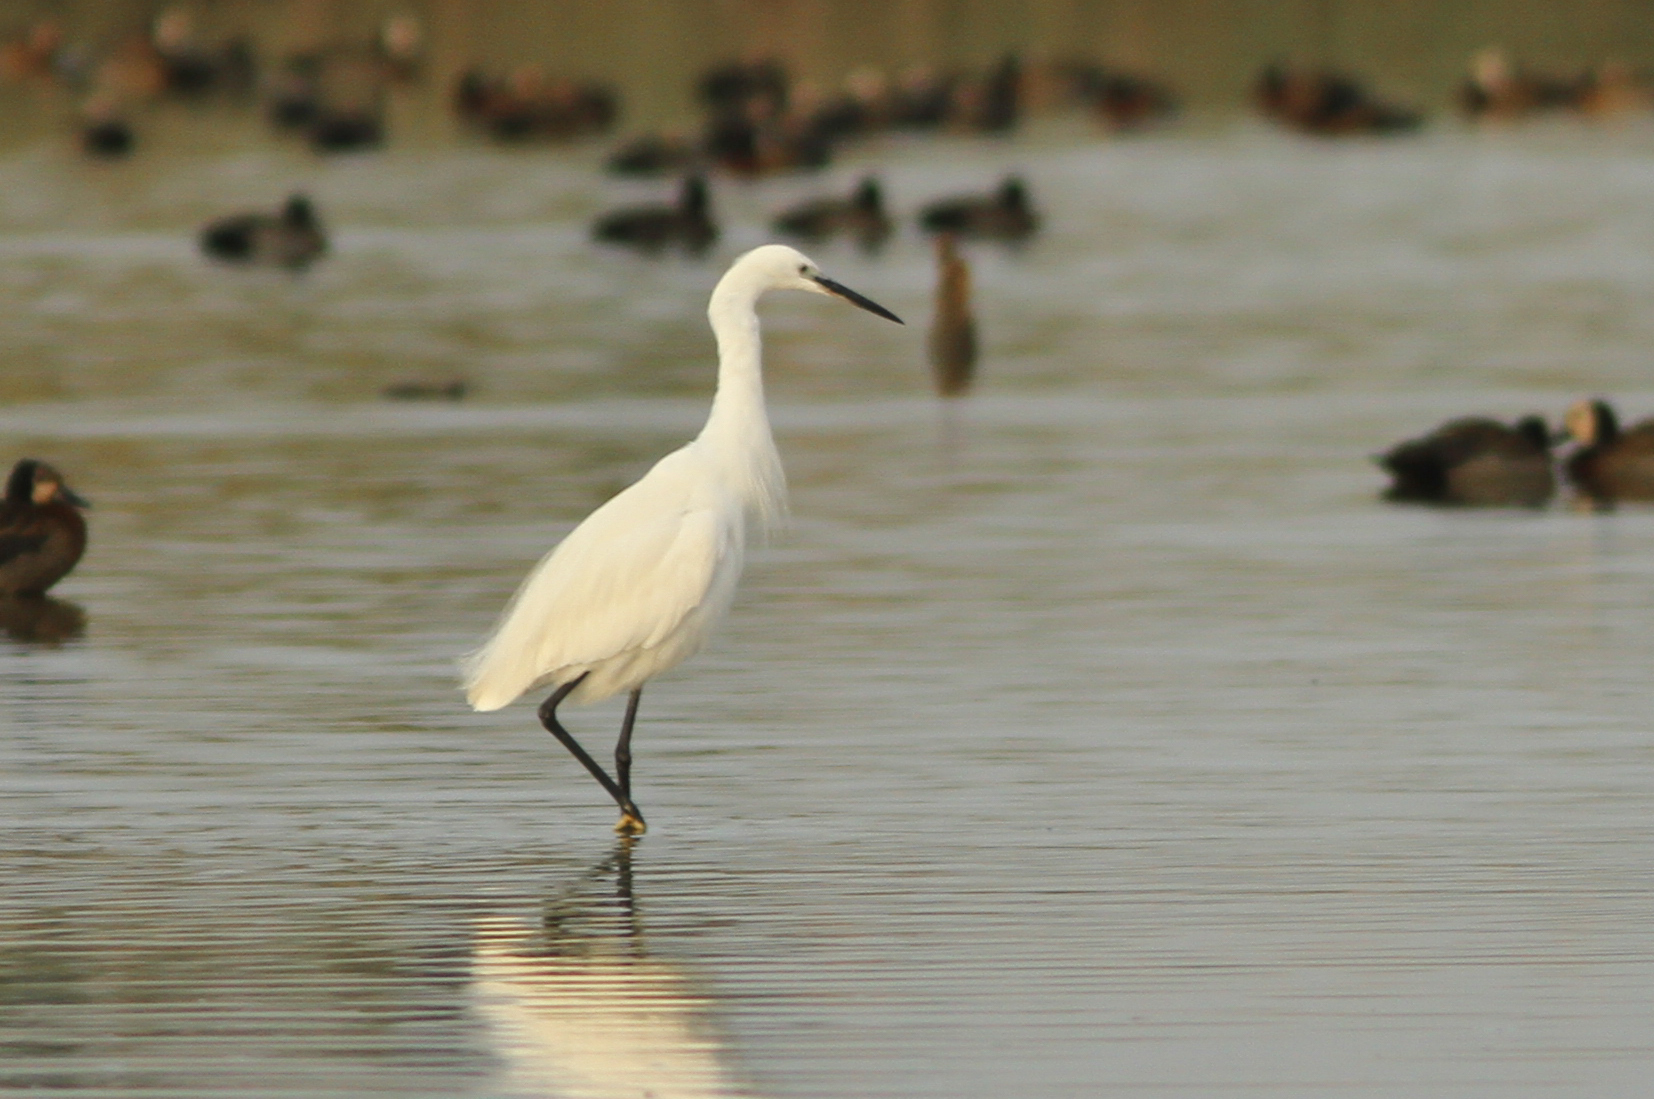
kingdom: Animalia
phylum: Chordata
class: Aves
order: Pelecaniformes
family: Ardeidae
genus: Egretta
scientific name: Egretta garzetta
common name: Little egret
